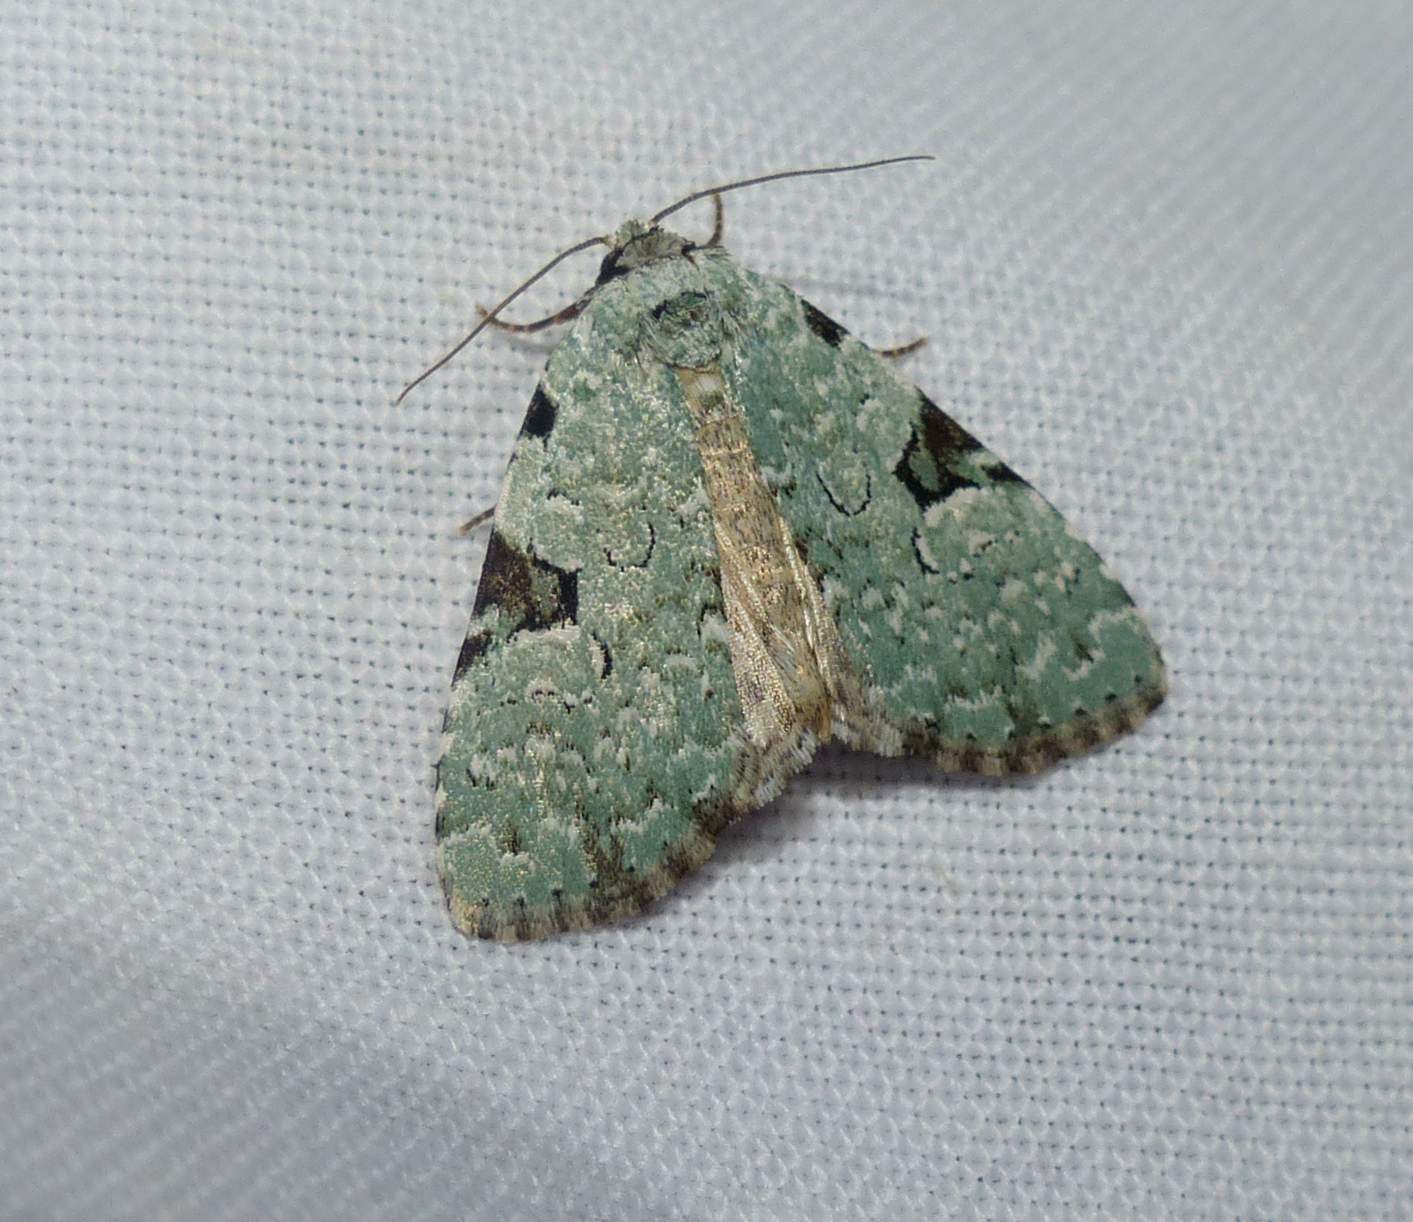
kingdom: Animalia
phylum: Arthropoda
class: Insecta
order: Lepidoptera
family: Noctuidae
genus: Leuconycta
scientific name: Leuconycta diphteroides
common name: Green leuconycta moth
